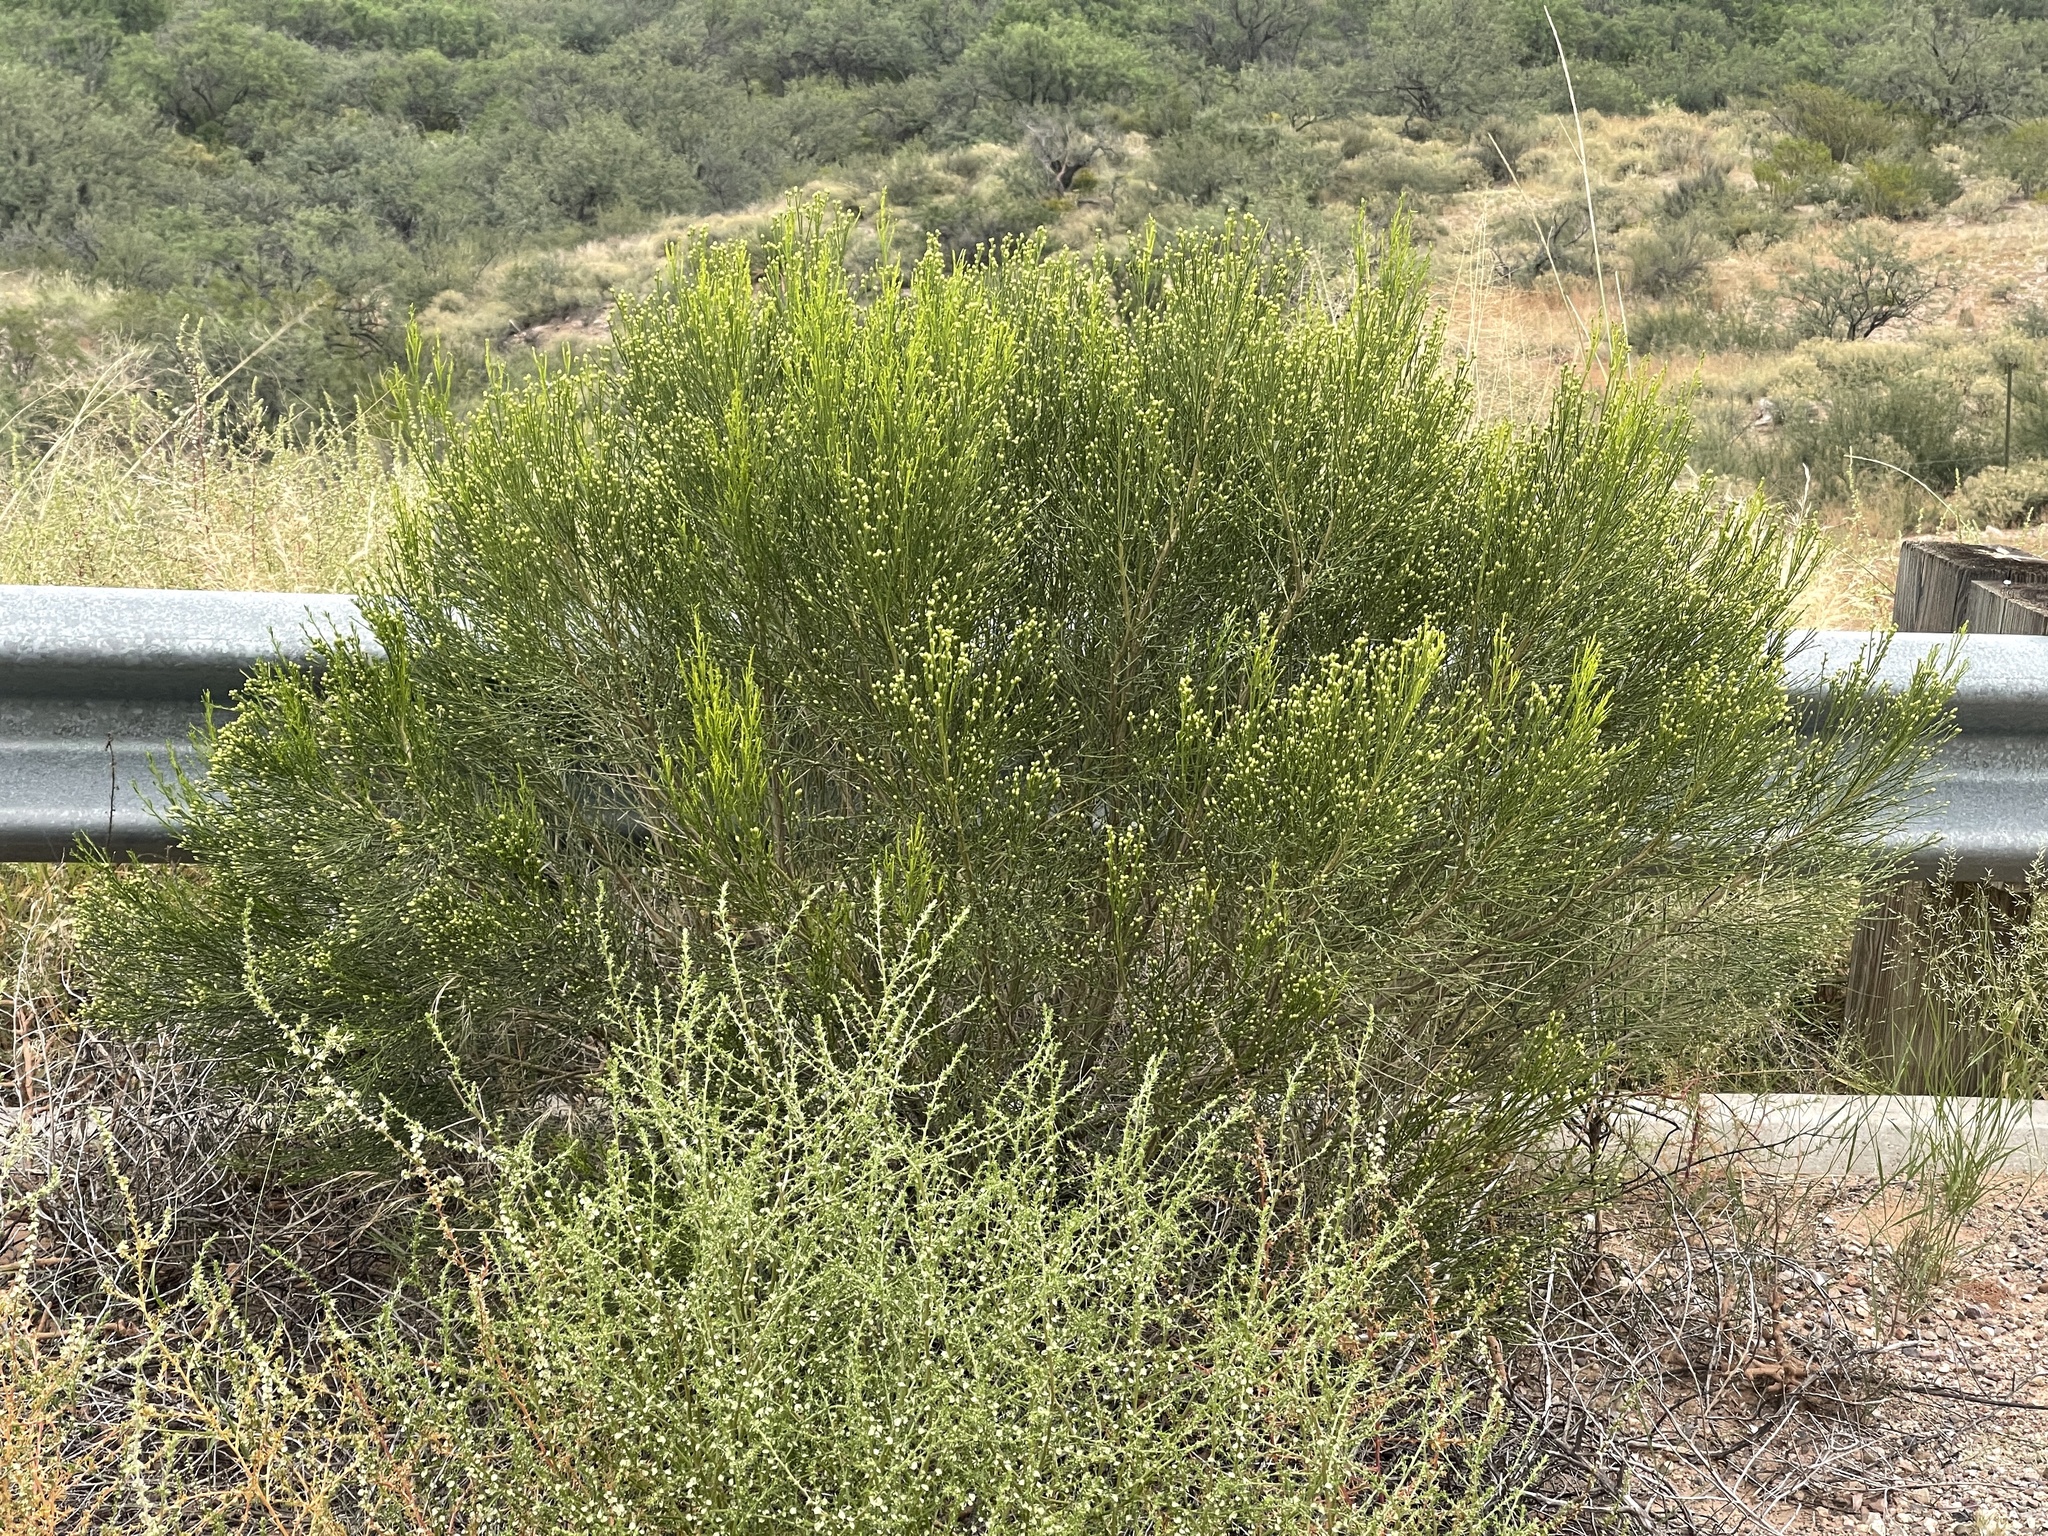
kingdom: Plantae
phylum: Tracheophyta
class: Magnoliopsida
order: Asterales
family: Asteraceae
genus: Baccharis
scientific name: Baccharis sarothroides
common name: Desert-broom
